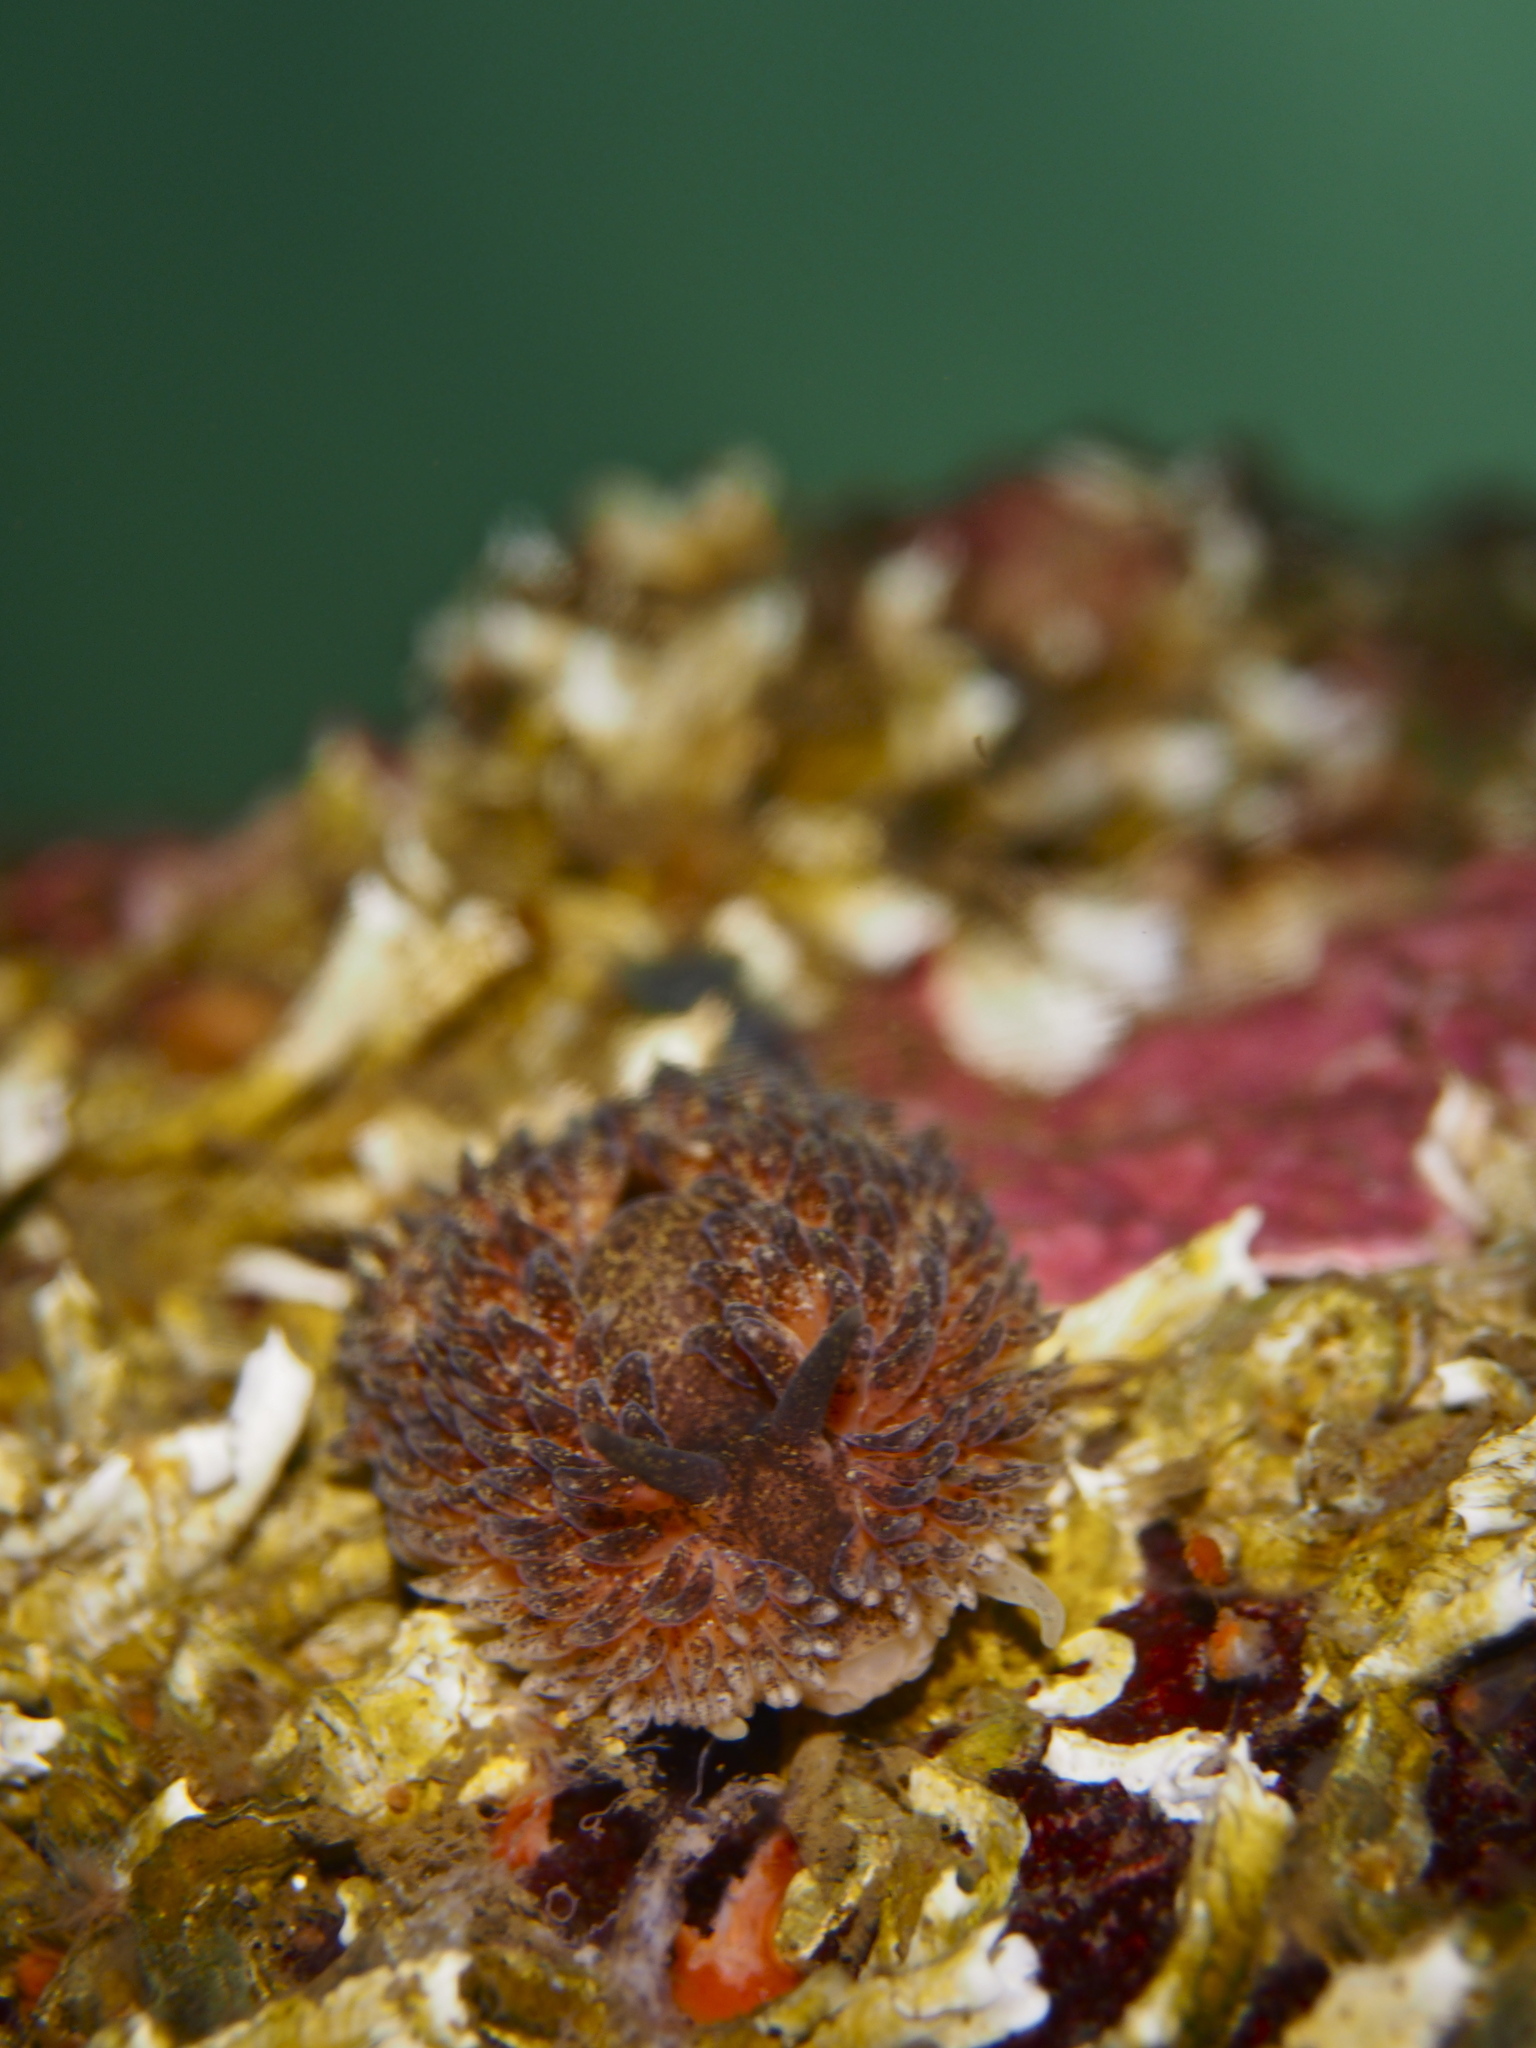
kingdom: Animalia
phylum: Mollusca
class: Gastropoda
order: Nudibranchia
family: Aeolidiidae
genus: Aeolidia
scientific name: Aeolidia papillosa
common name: Common grey sea slug
